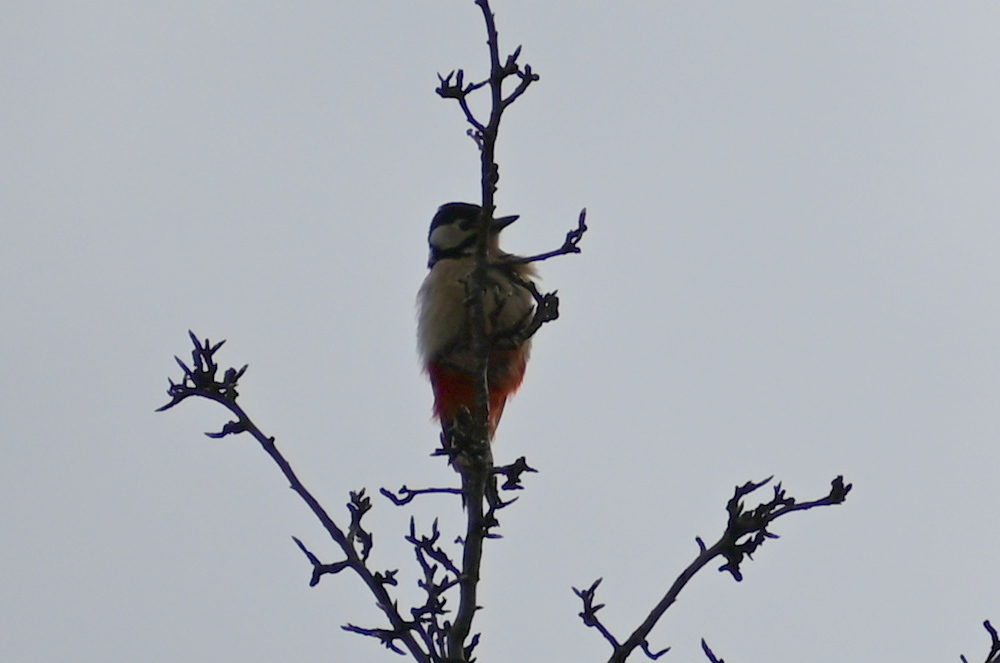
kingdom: Animalia
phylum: Chordata
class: Aves
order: Piciformes
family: Picidae
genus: Dendrocopos
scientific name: Dendrocopos major
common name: Great spotted woodpecker
